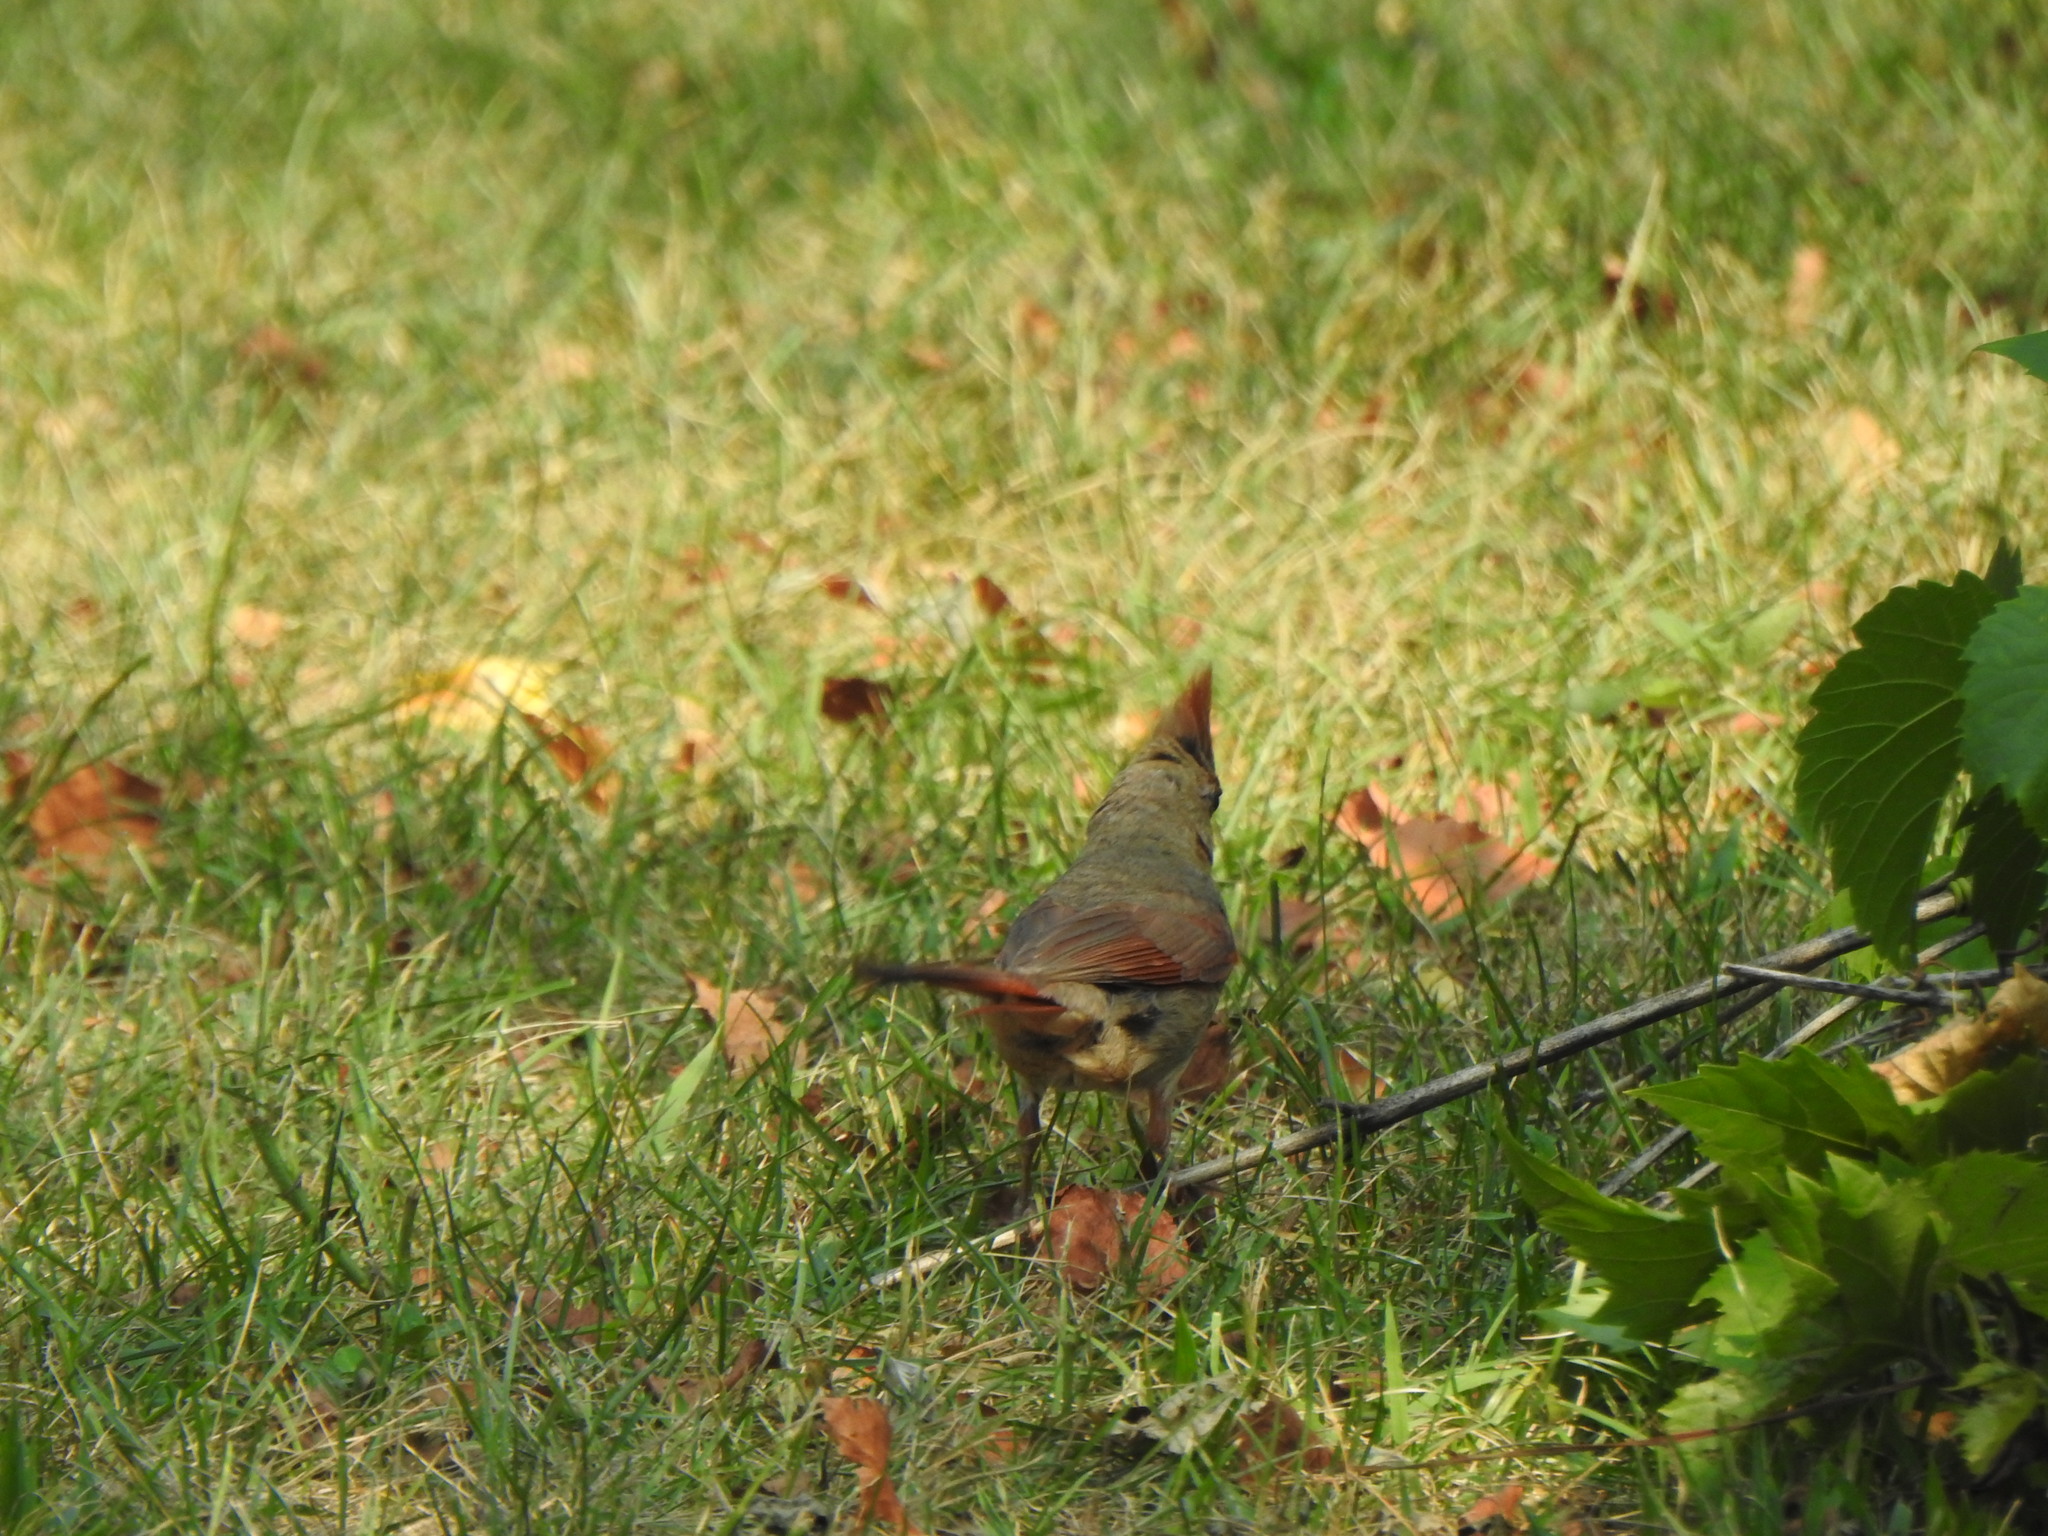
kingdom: Animalia
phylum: Chordata
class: Aves
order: Passeriformes
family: Cardinalidae
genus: Cardinalis
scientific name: Cardinalis cardinalis
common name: Northern cardinal
